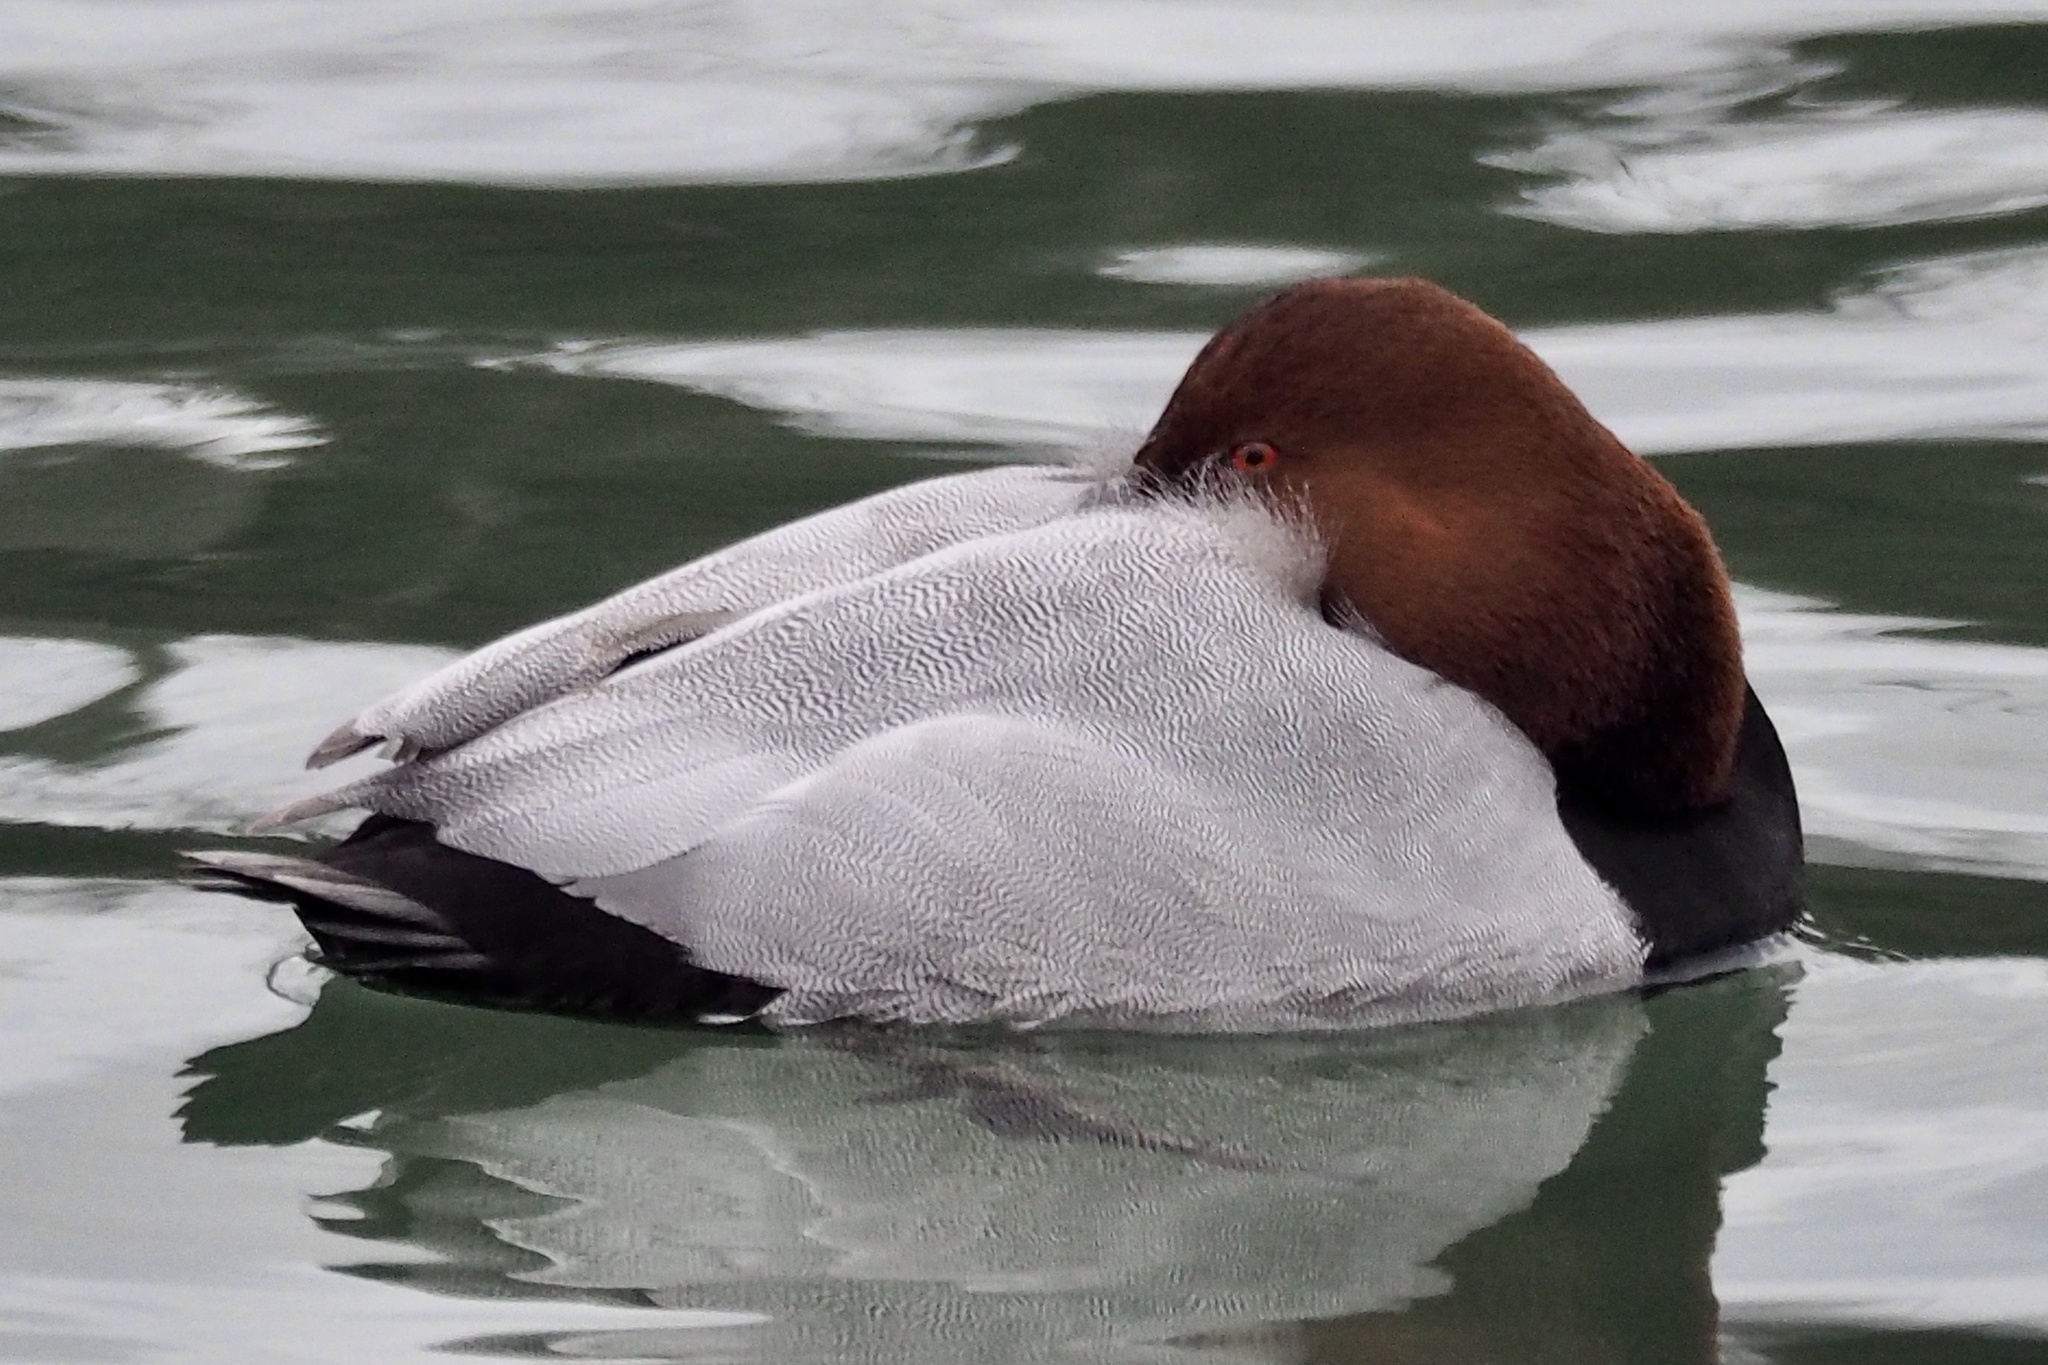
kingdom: Animalia
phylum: Chordata
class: Aves
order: Anseriformes
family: Anatidae
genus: Aythya
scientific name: Aythya ferina
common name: Common pochard
